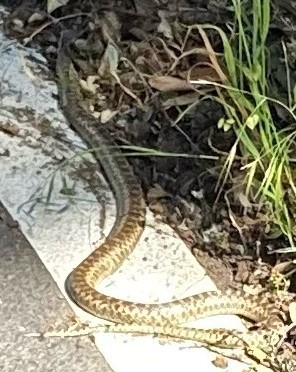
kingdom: Animalia
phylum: Chordata
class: Squamata
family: Colubridae
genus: Pituophis
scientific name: Pituophis catenifer
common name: Gopher snake
